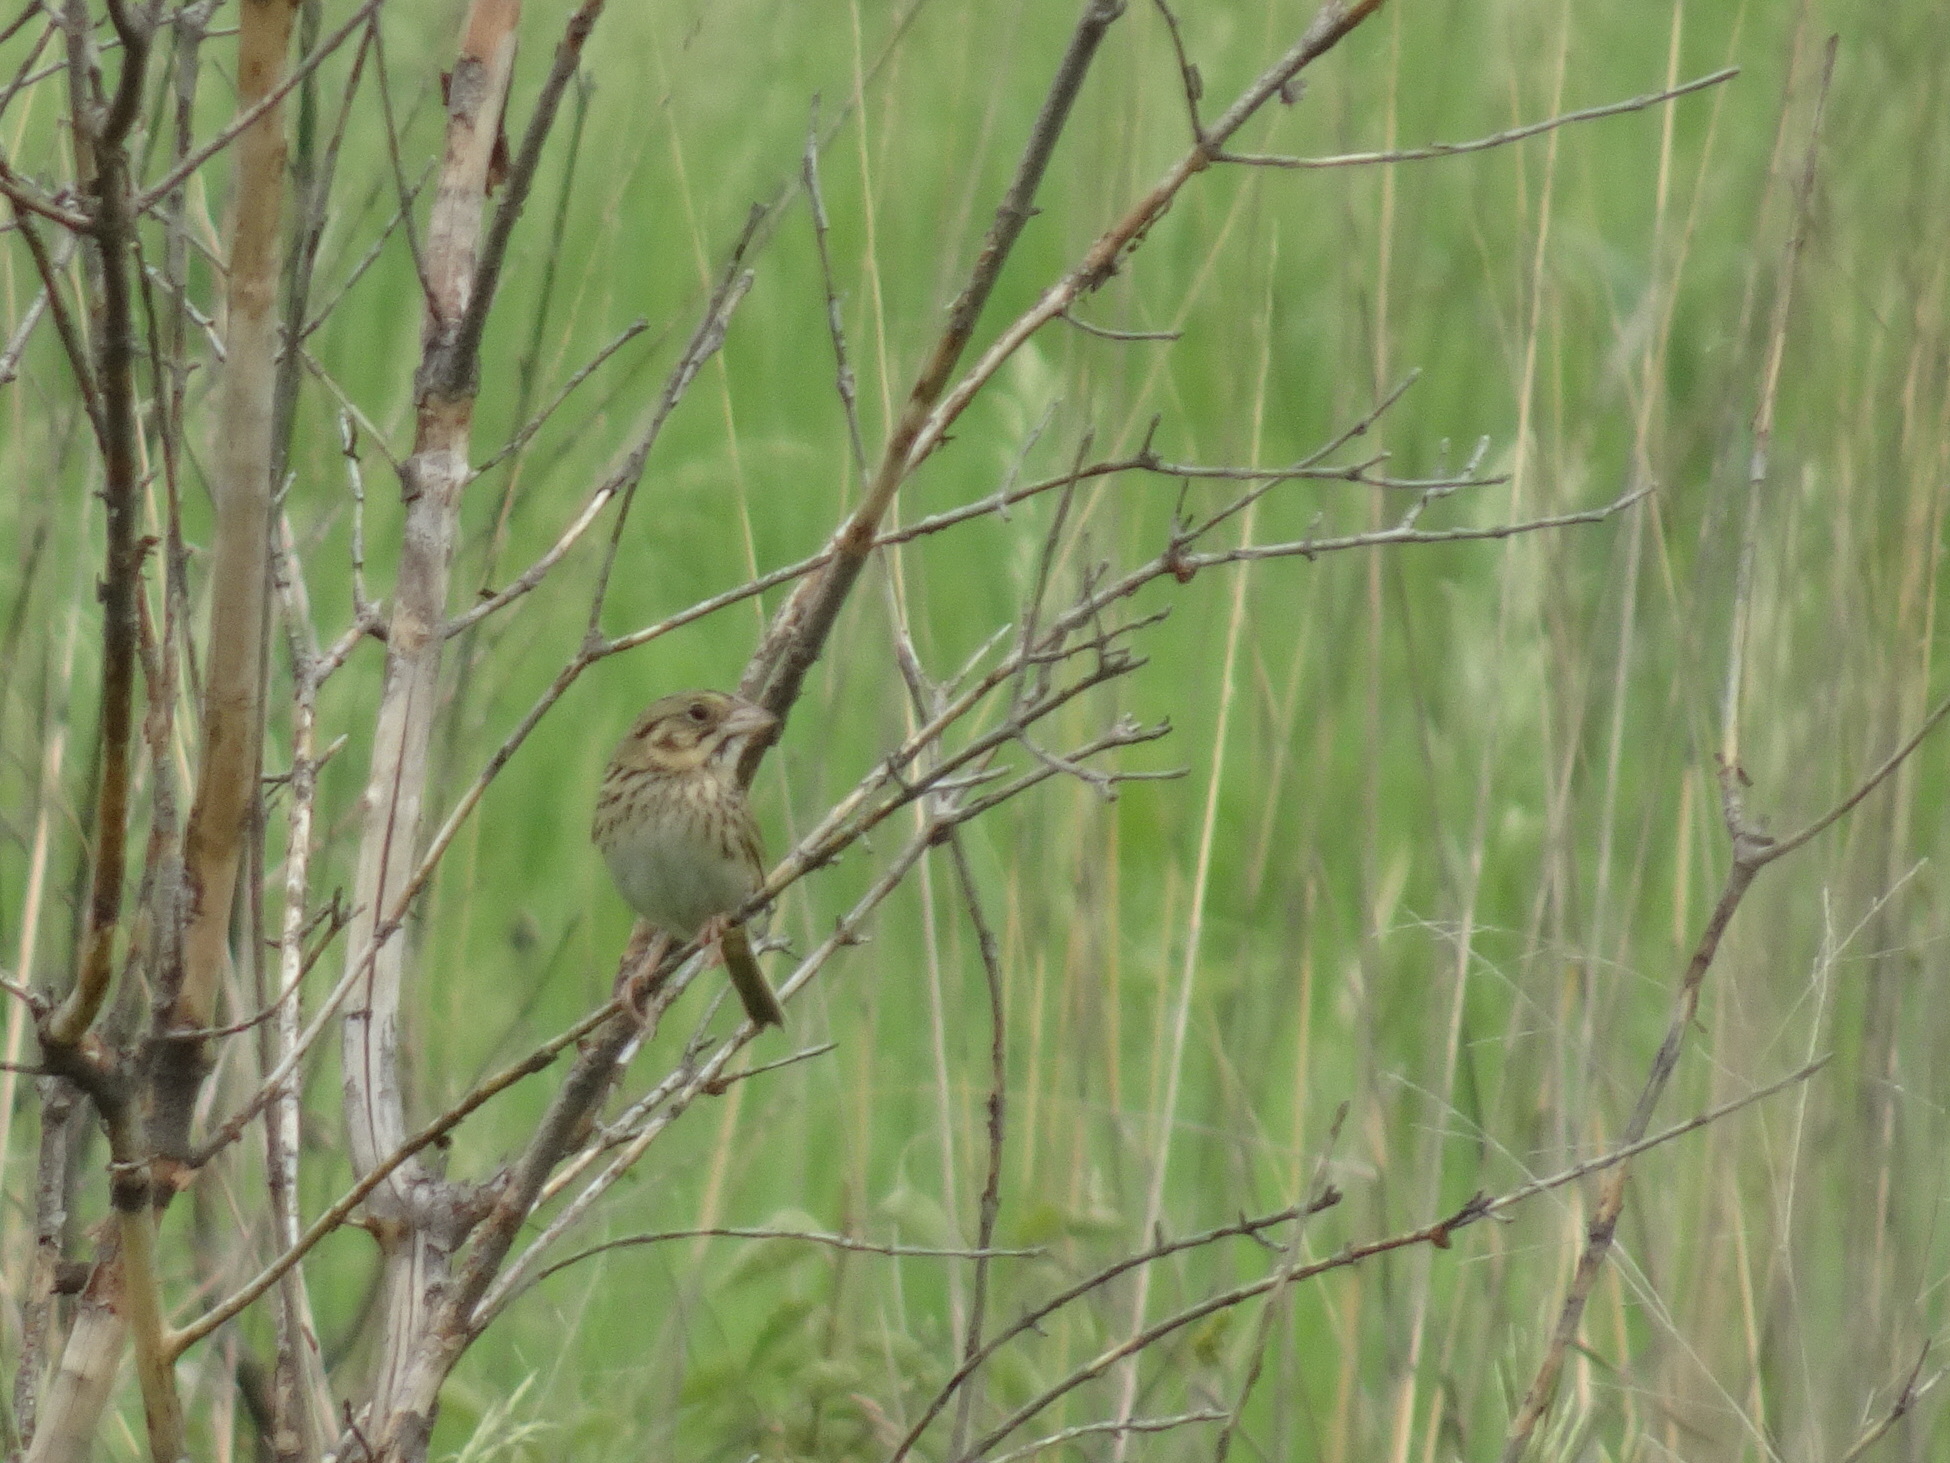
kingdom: Animalia
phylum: Chordata
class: Aves
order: Passeriformes
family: Passerellidae
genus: Centronyx
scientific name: Centronyx henslowii
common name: Henslow's sparrow
